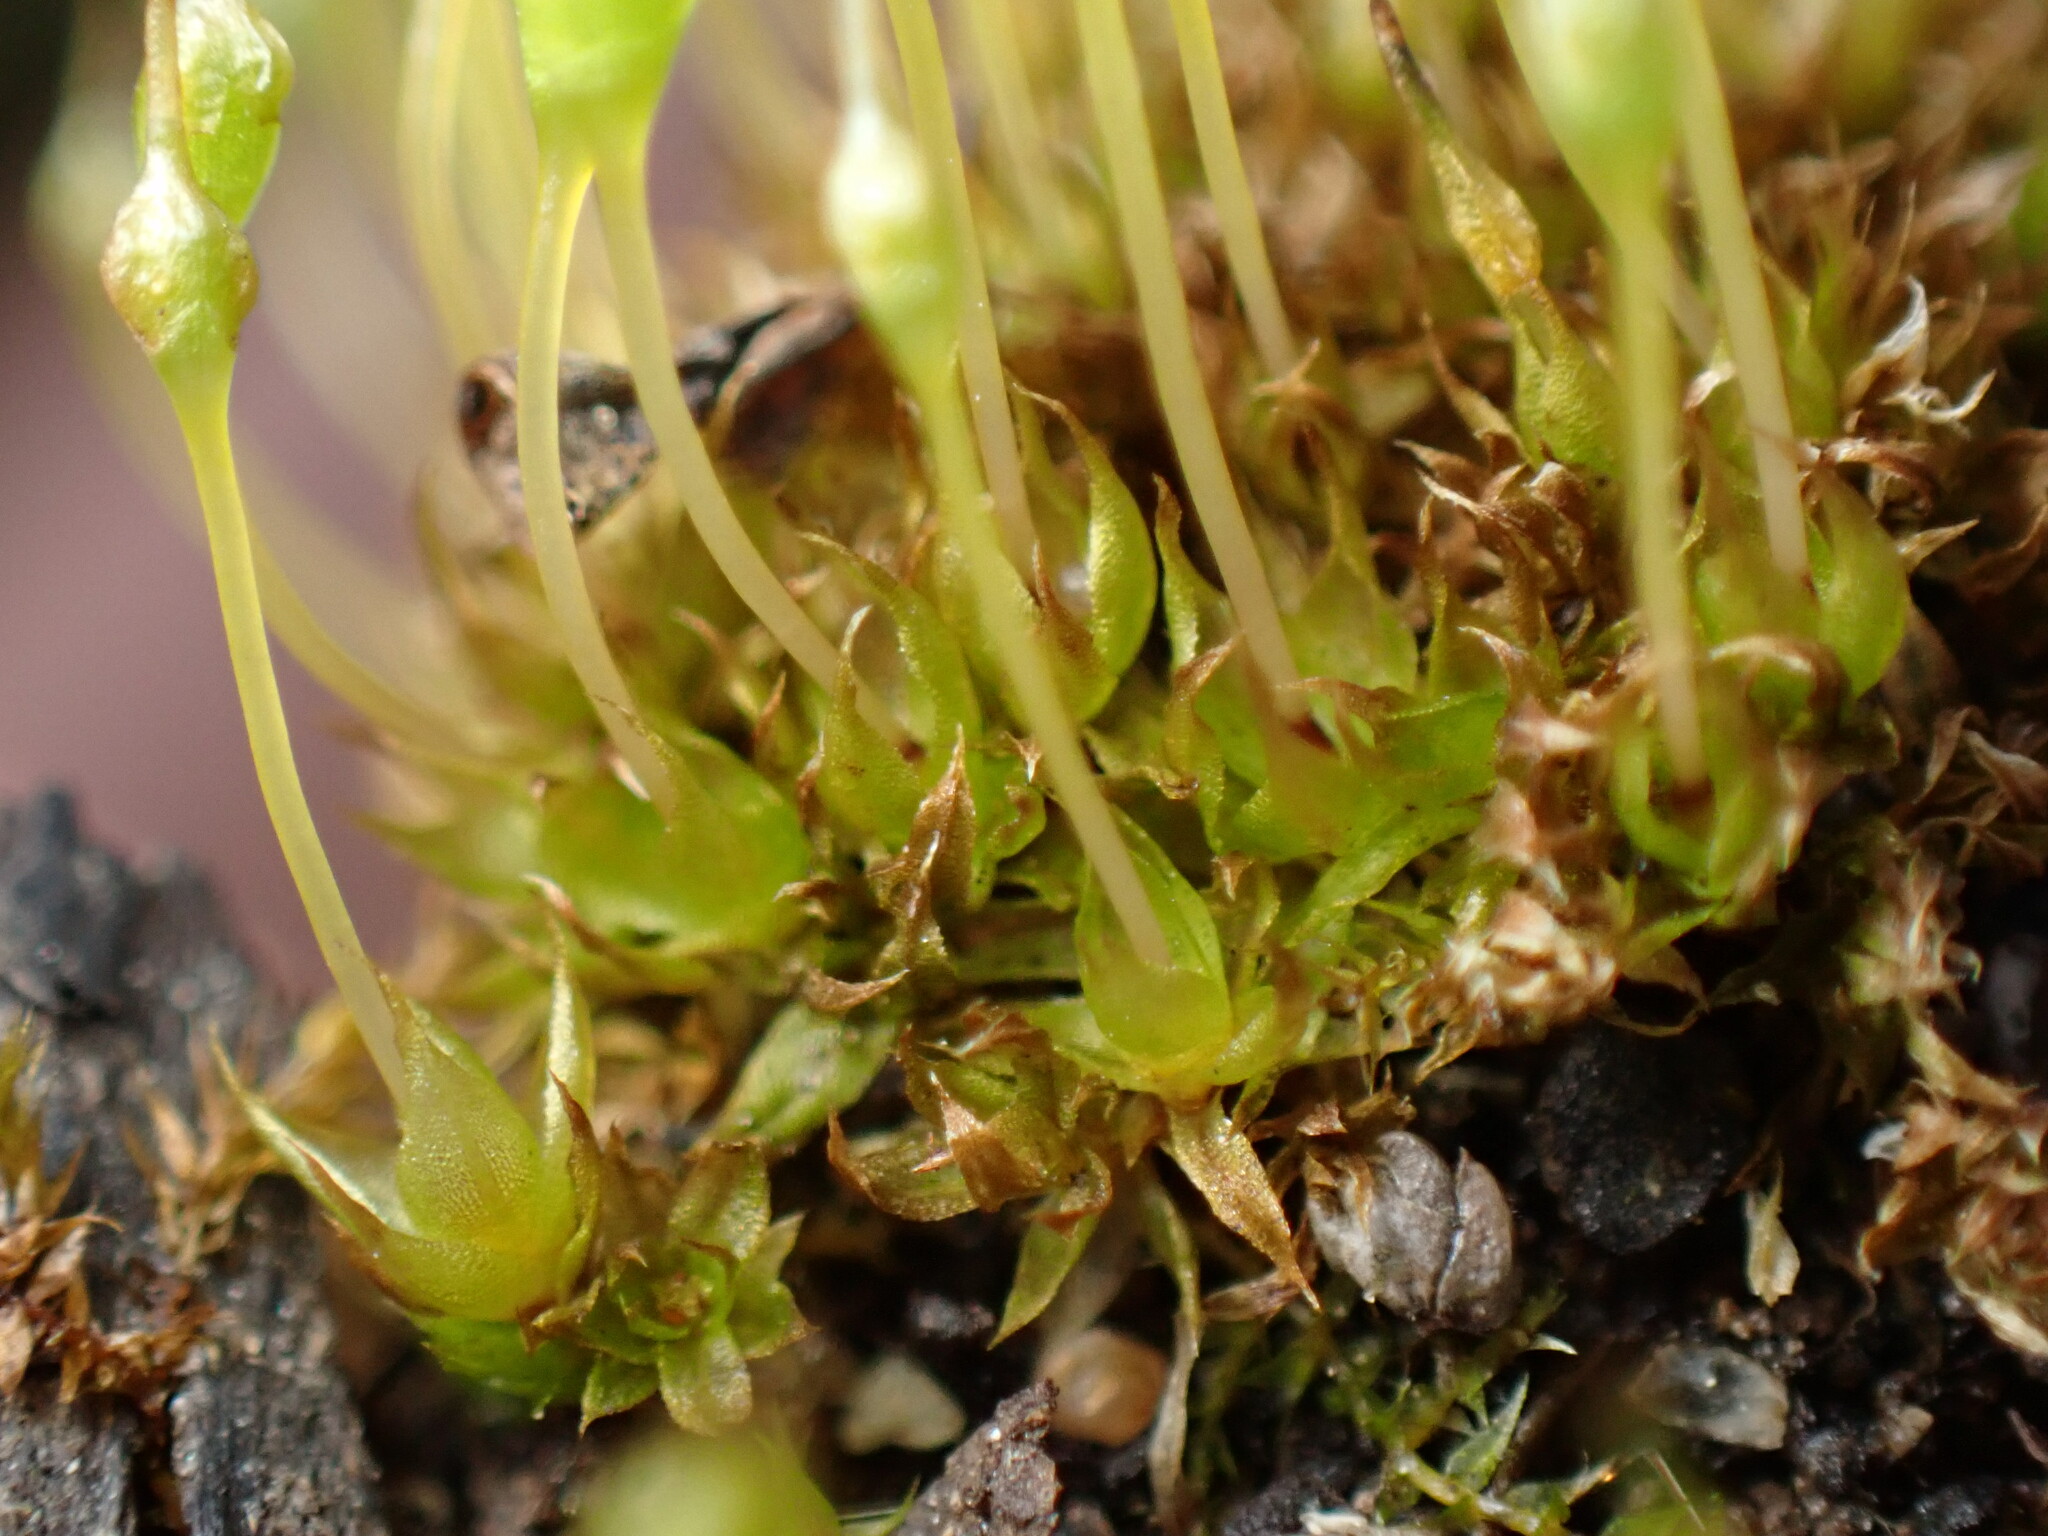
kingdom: Plantae
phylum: Bryophyta
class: Bryopsida
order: Funariales
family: Funariaceae
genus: Physcomitrium
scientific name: Physcomitrium pyriforme
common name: Common bladder-moss
